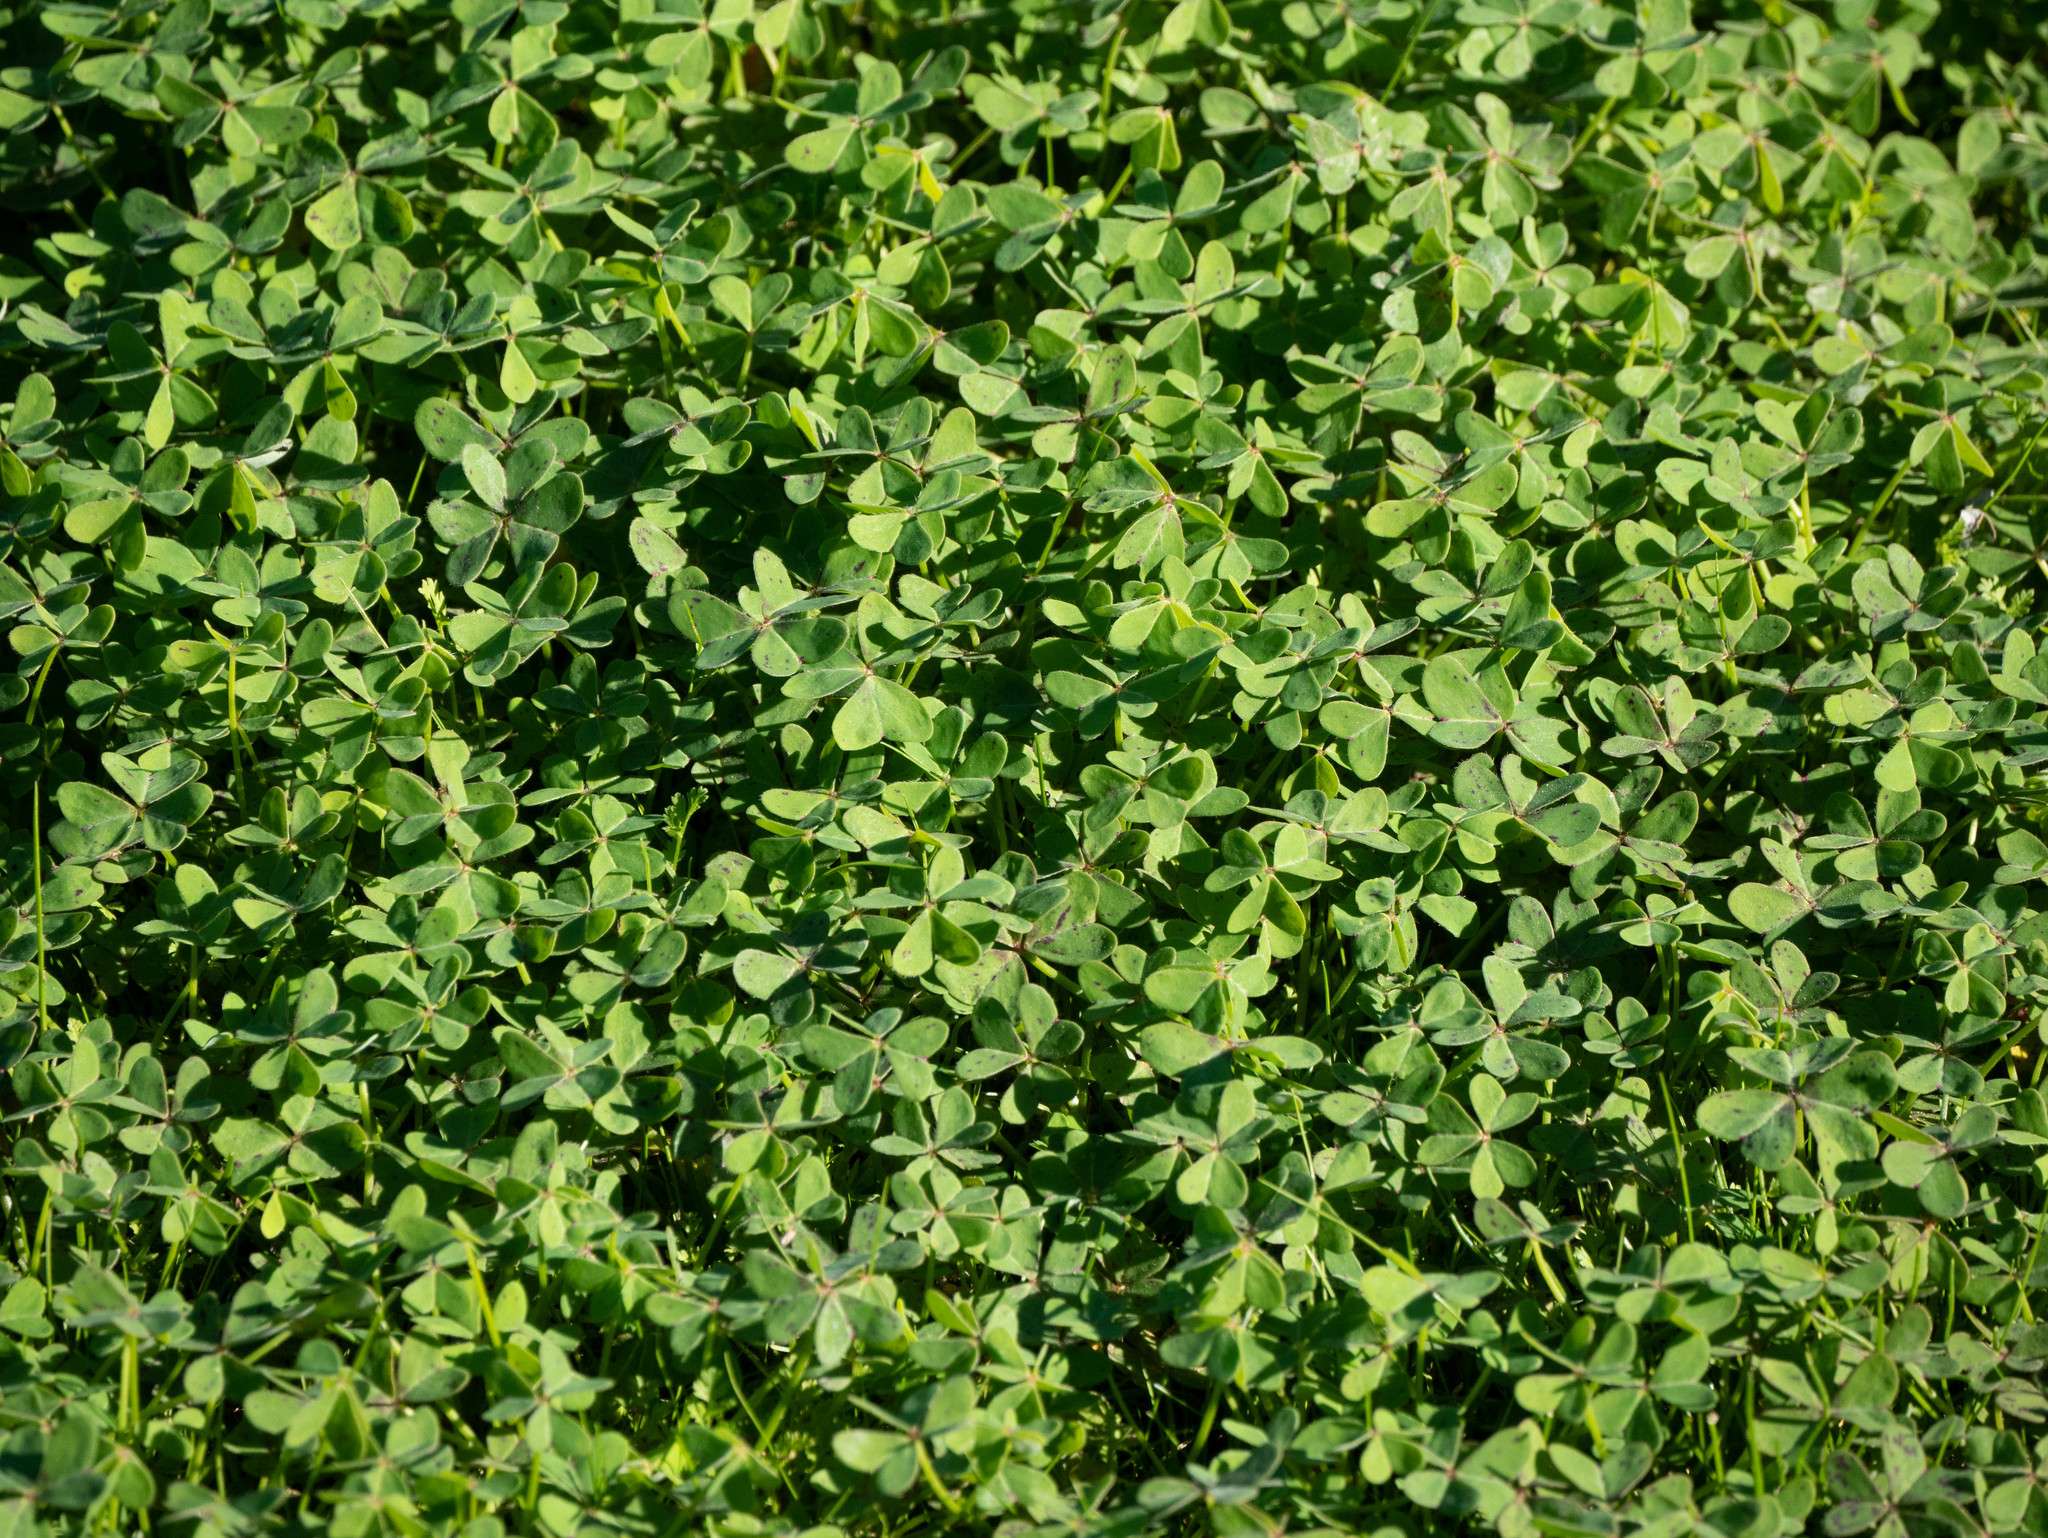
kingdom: Plantae
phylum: Tracheophyta
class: Magnoliopsida
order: Oxalidales
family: Oxalidaceae
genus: Oxalis
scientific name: Oxalis pes-caprae
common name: Bermuda-buttercup
